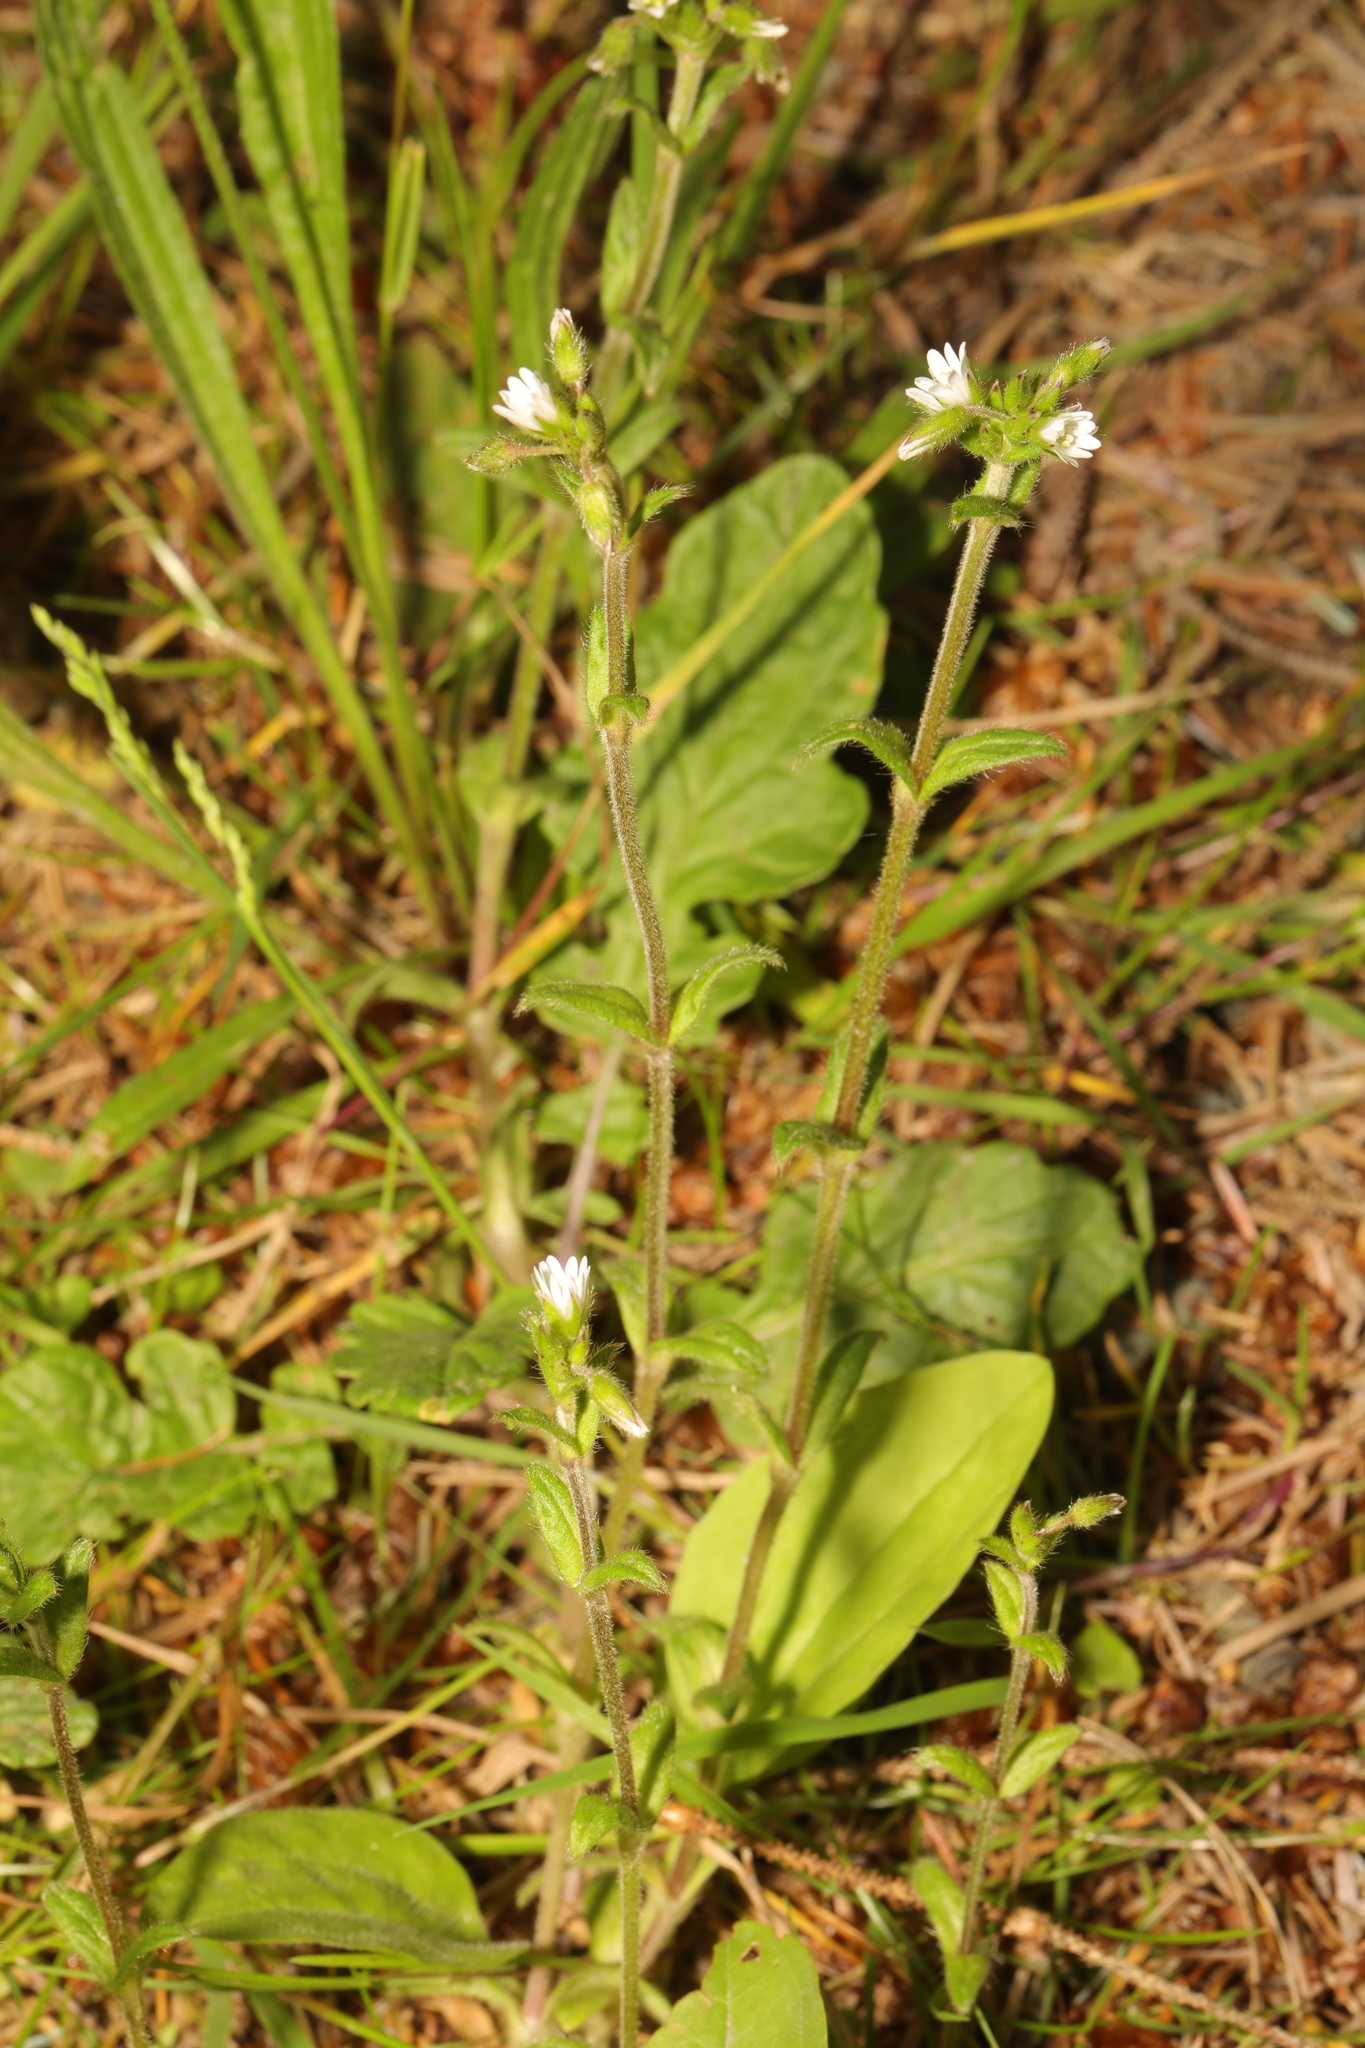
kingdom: Plantae
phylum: Tracheophyta
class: Magnoliopsida
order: Caryophyllales
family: Caryophyllaceae
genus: Cerastium
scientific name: Cerastium fontanum
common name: Common mouse-ear
